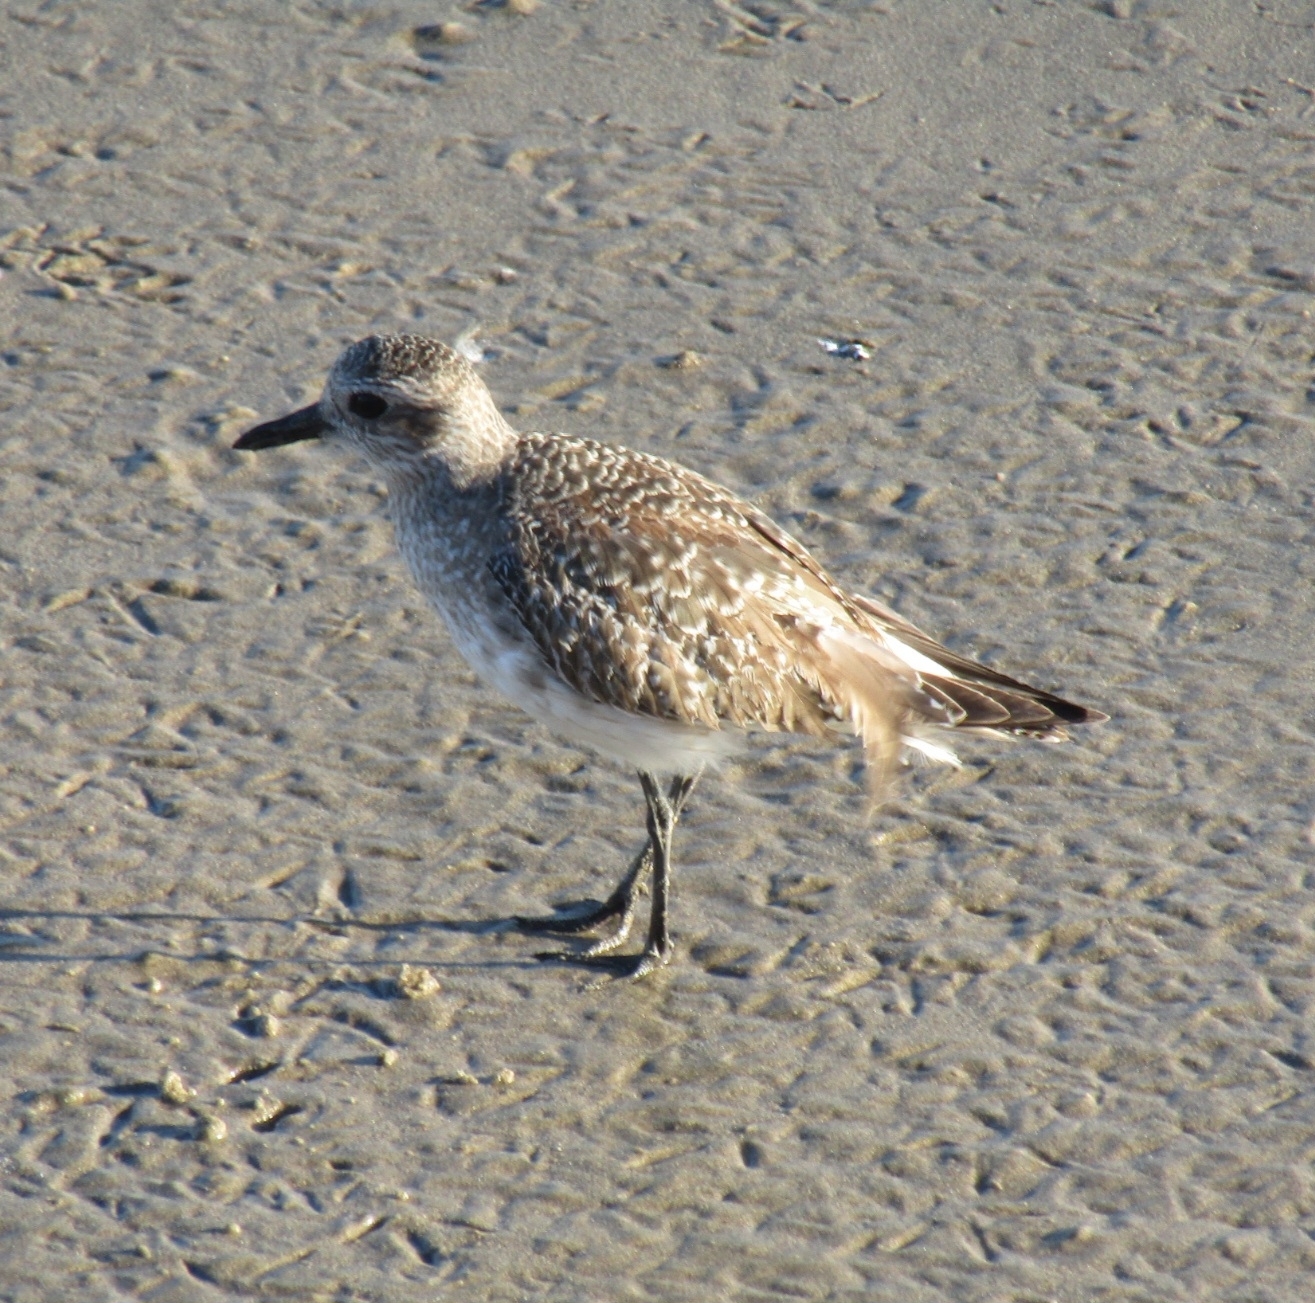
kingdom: Animalia
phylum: Chordata
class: Aves
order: Charadriiformes
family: Charadriidae
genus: Pluvialis
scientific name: Pluvialis squatarola
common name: Grey plover
